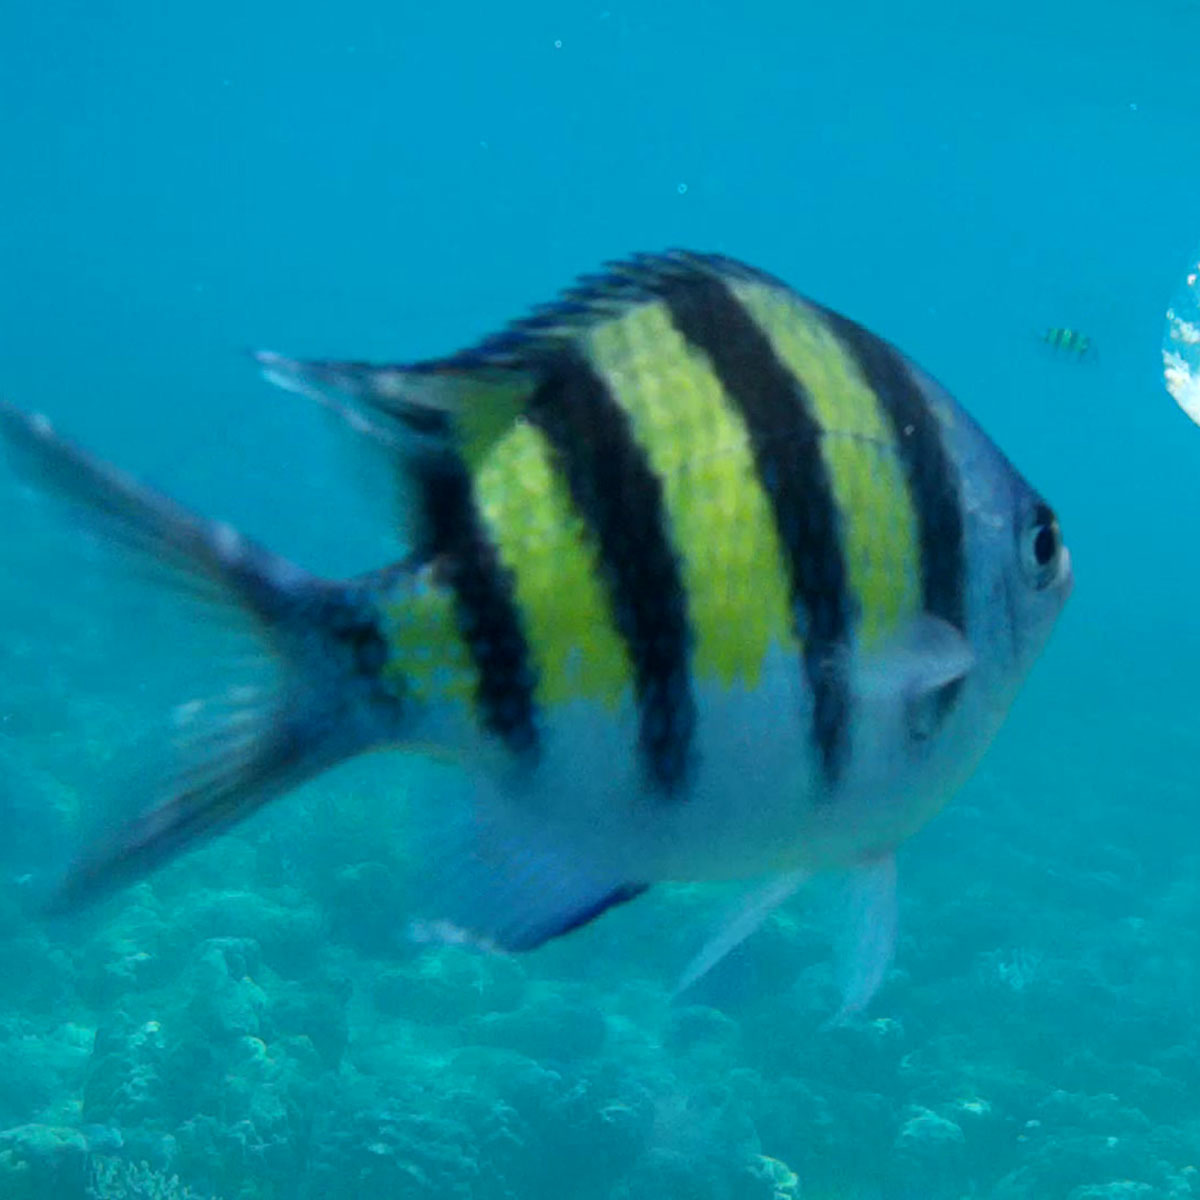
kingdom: Animalia
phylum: Chordata
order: Perciformes
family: Pomacentridae
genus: Abudefduf
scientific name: Abudefduf vaigiensis
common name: Indo-pacific sergeant
